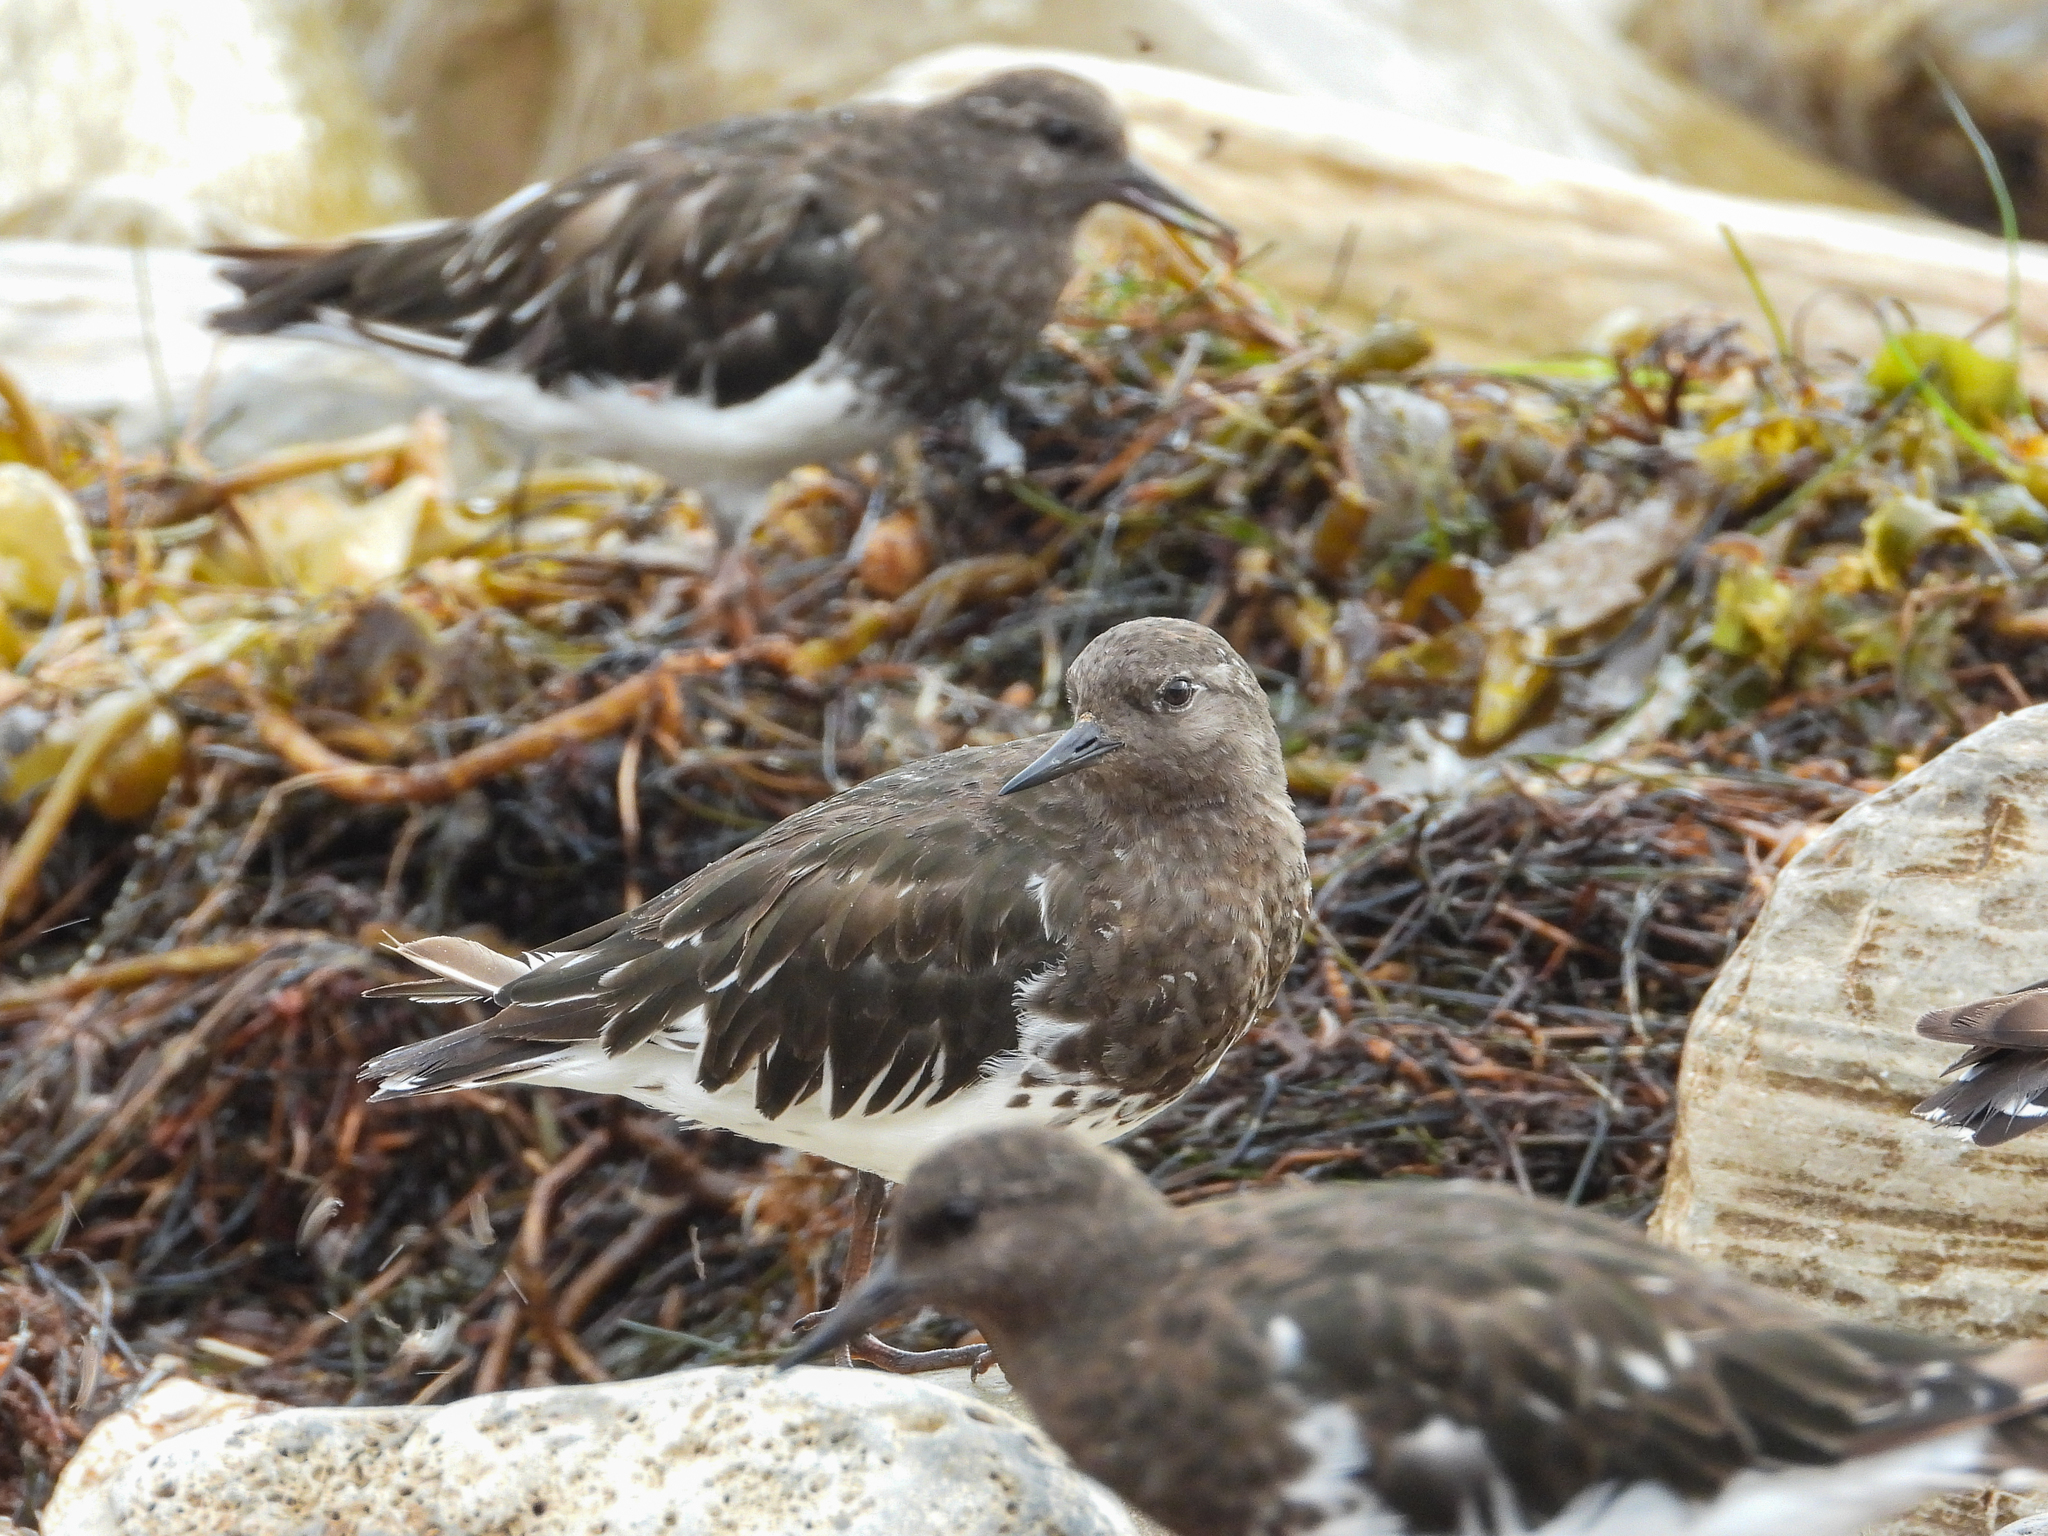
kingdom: Animalia
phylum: Chordata
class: Aves
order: Charadriiformes
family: Scolopacidae
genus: Arenaria
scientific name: Arenaria melanocephala
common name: Black turnstone
